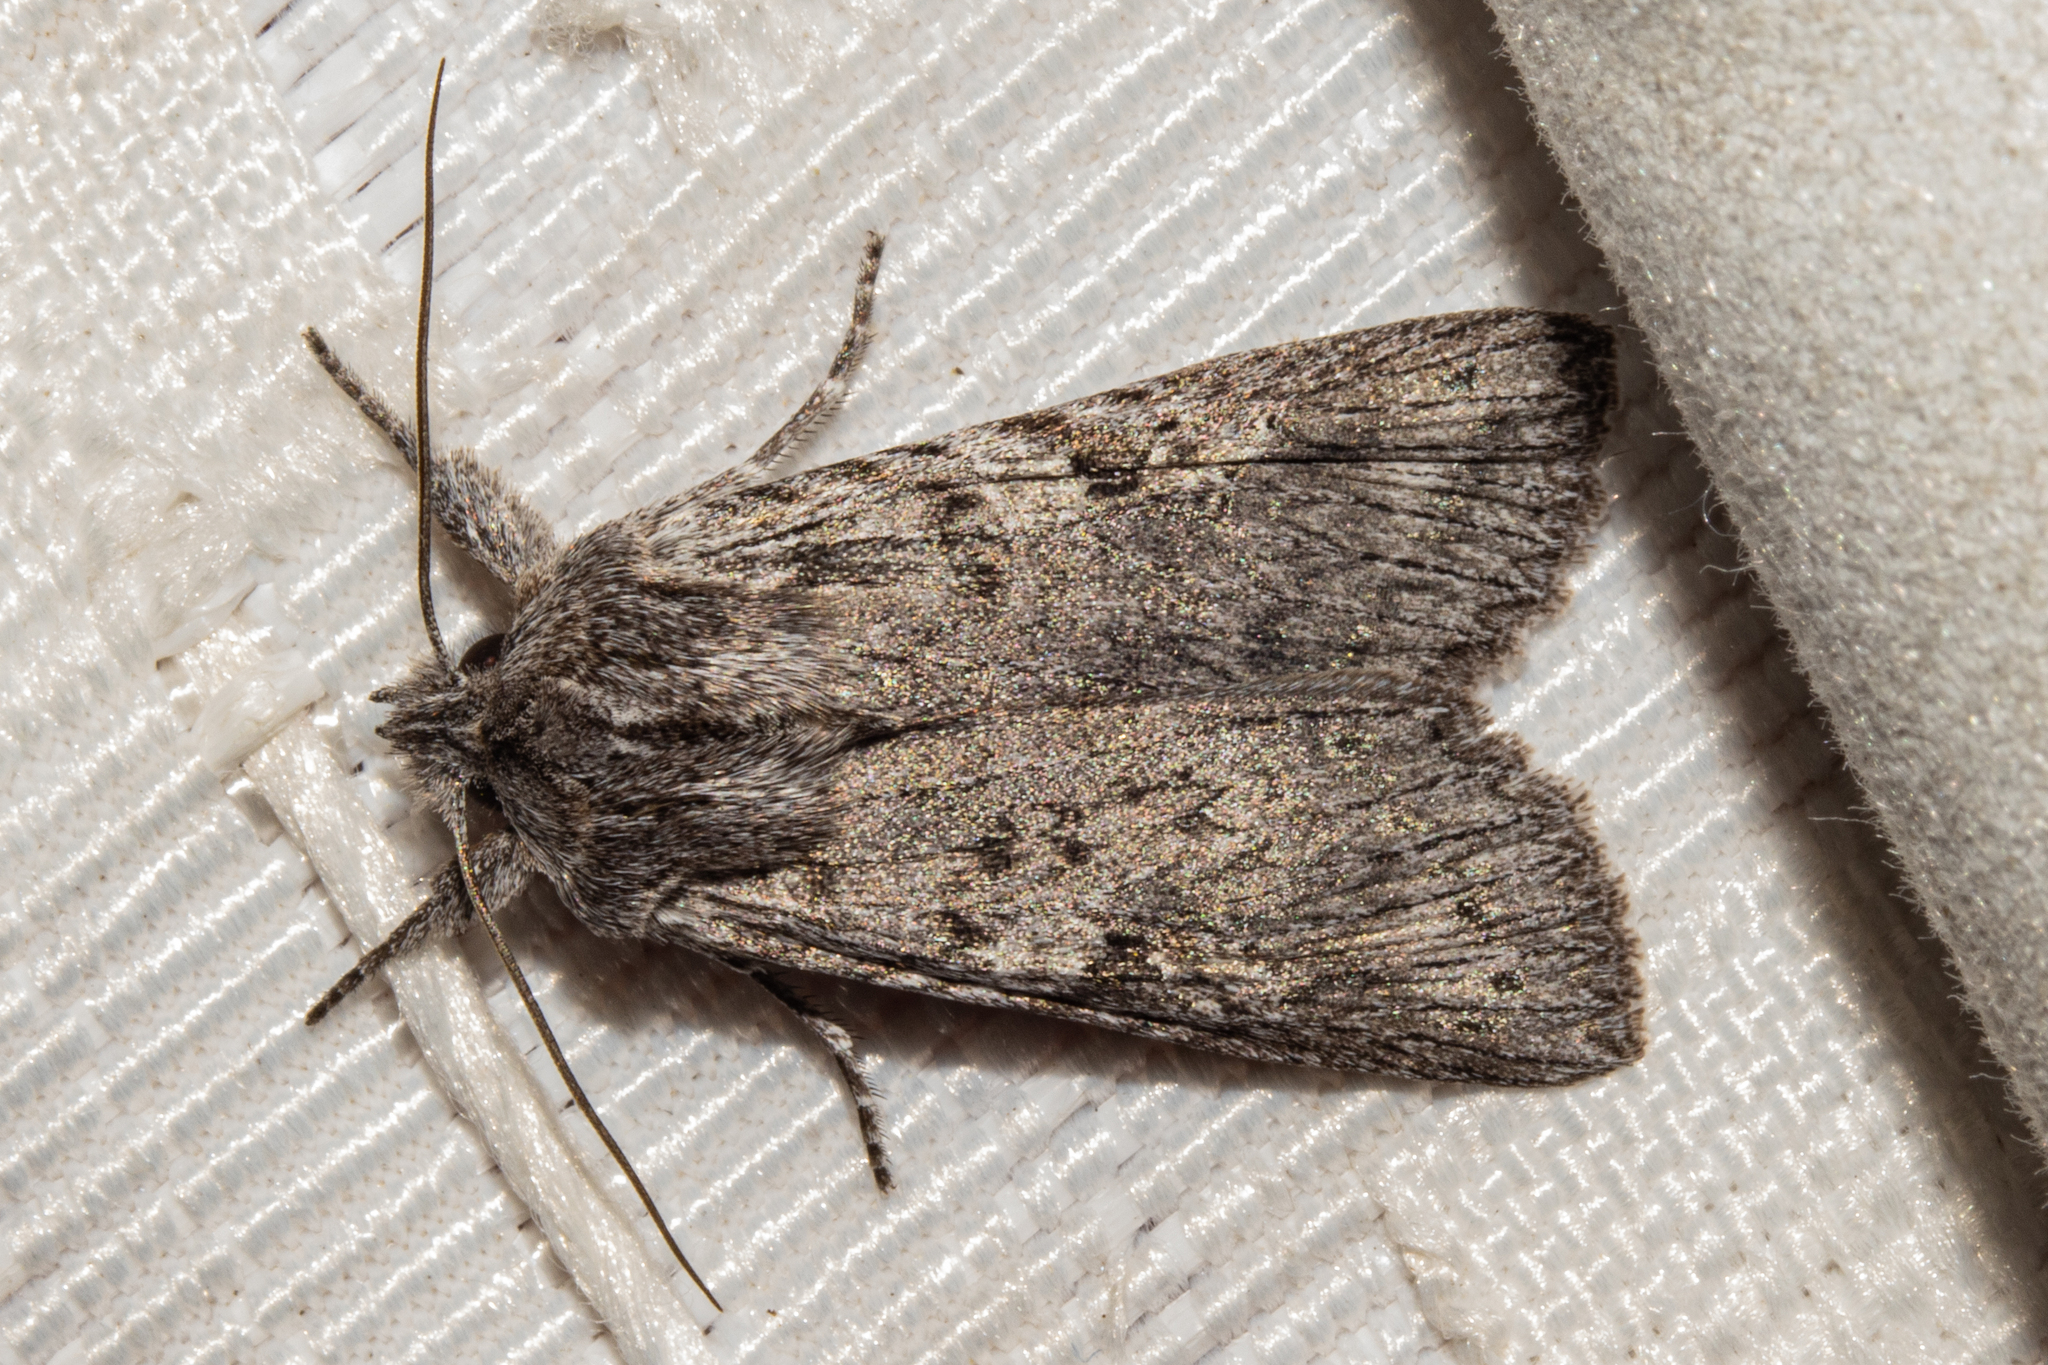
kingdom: Animalia
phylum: Arthropoda
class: Insecta
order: Lepidoptera
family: Noctuidae
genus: Physetica
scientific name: Physetica phricias
